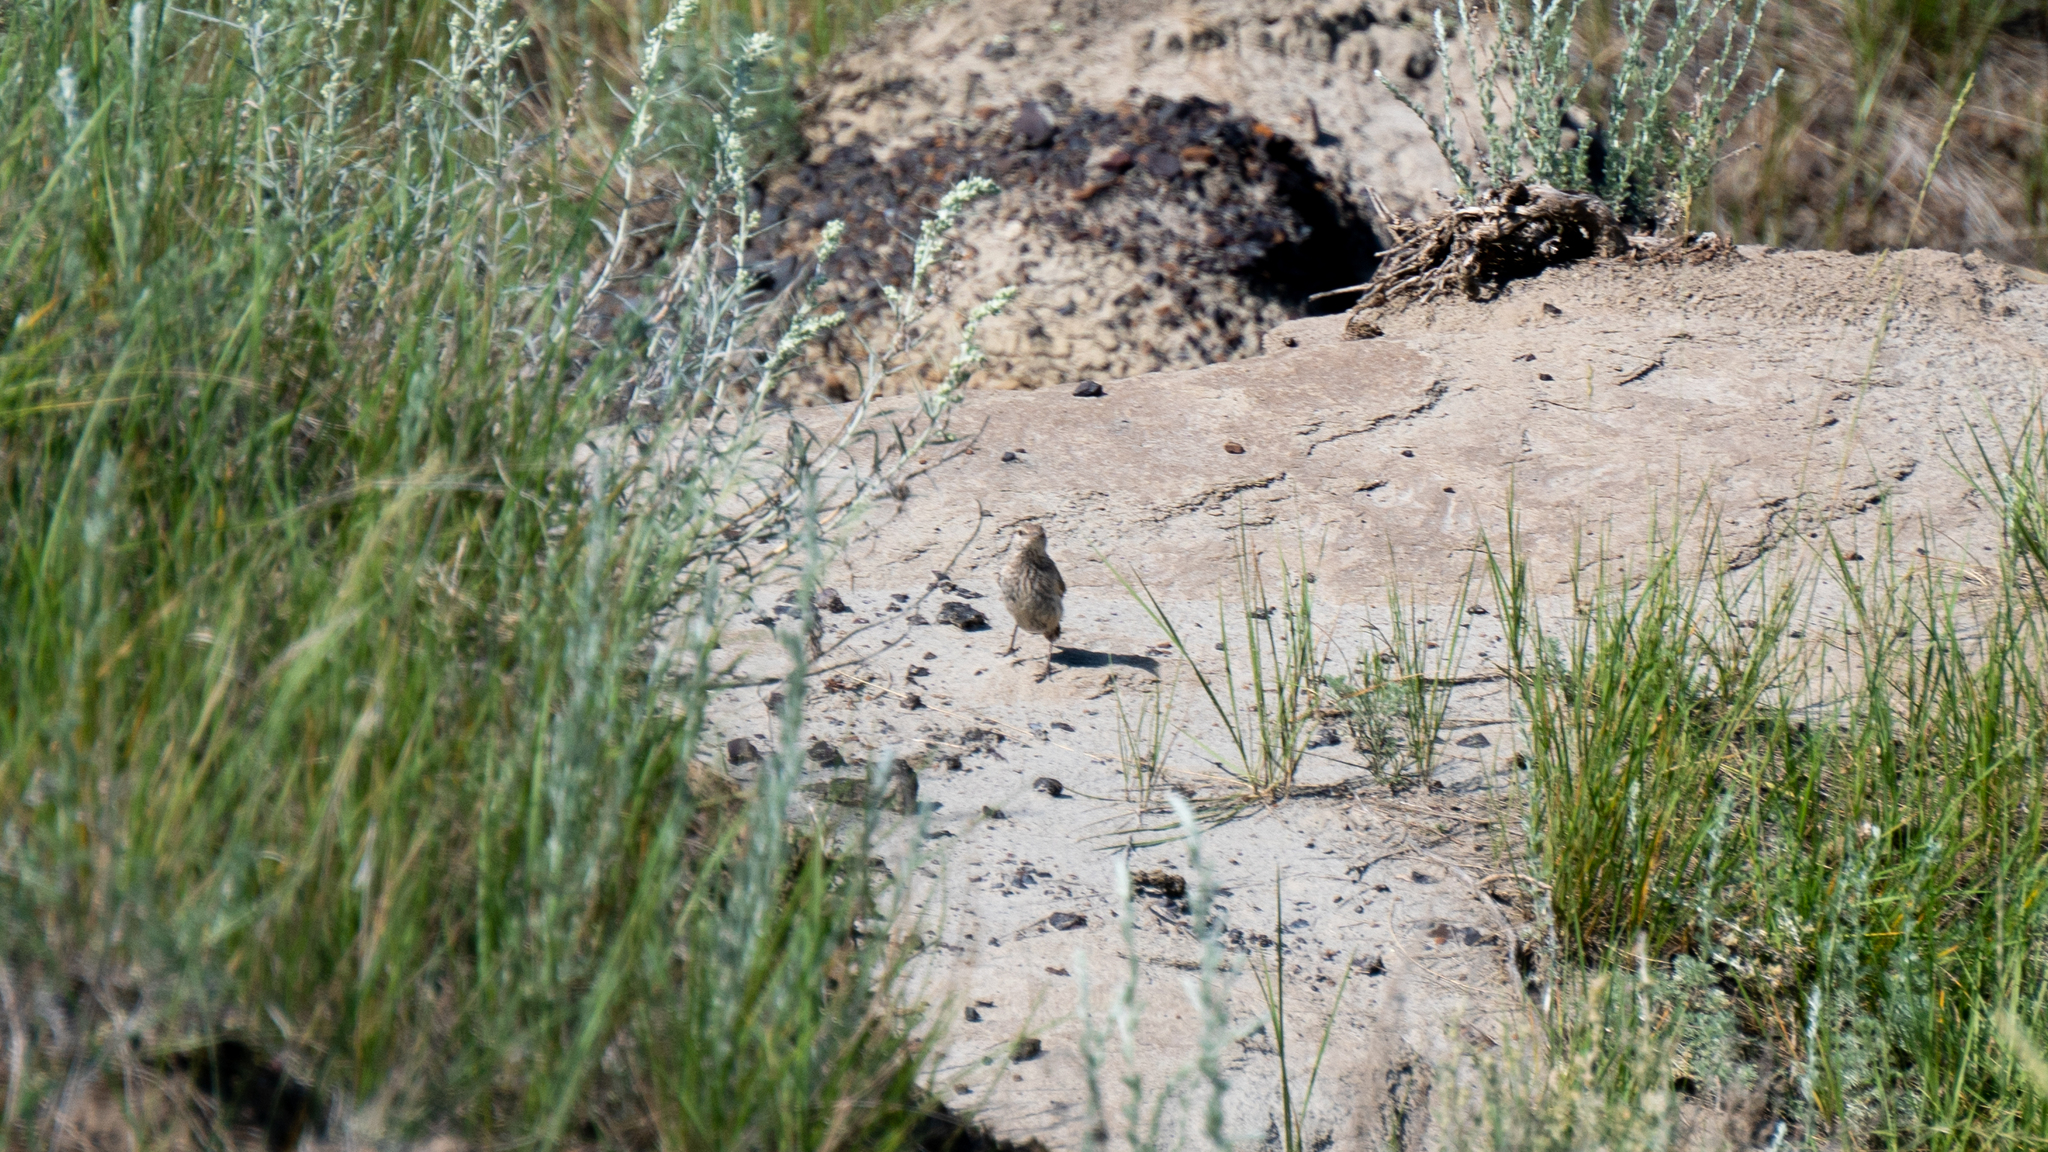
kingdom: Animalia
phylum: Chordata
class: Aves
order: Passeriformes
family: Troglodytidae
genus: Salpinctes
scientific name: Salpinctes obsoletus
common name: Rock wren
